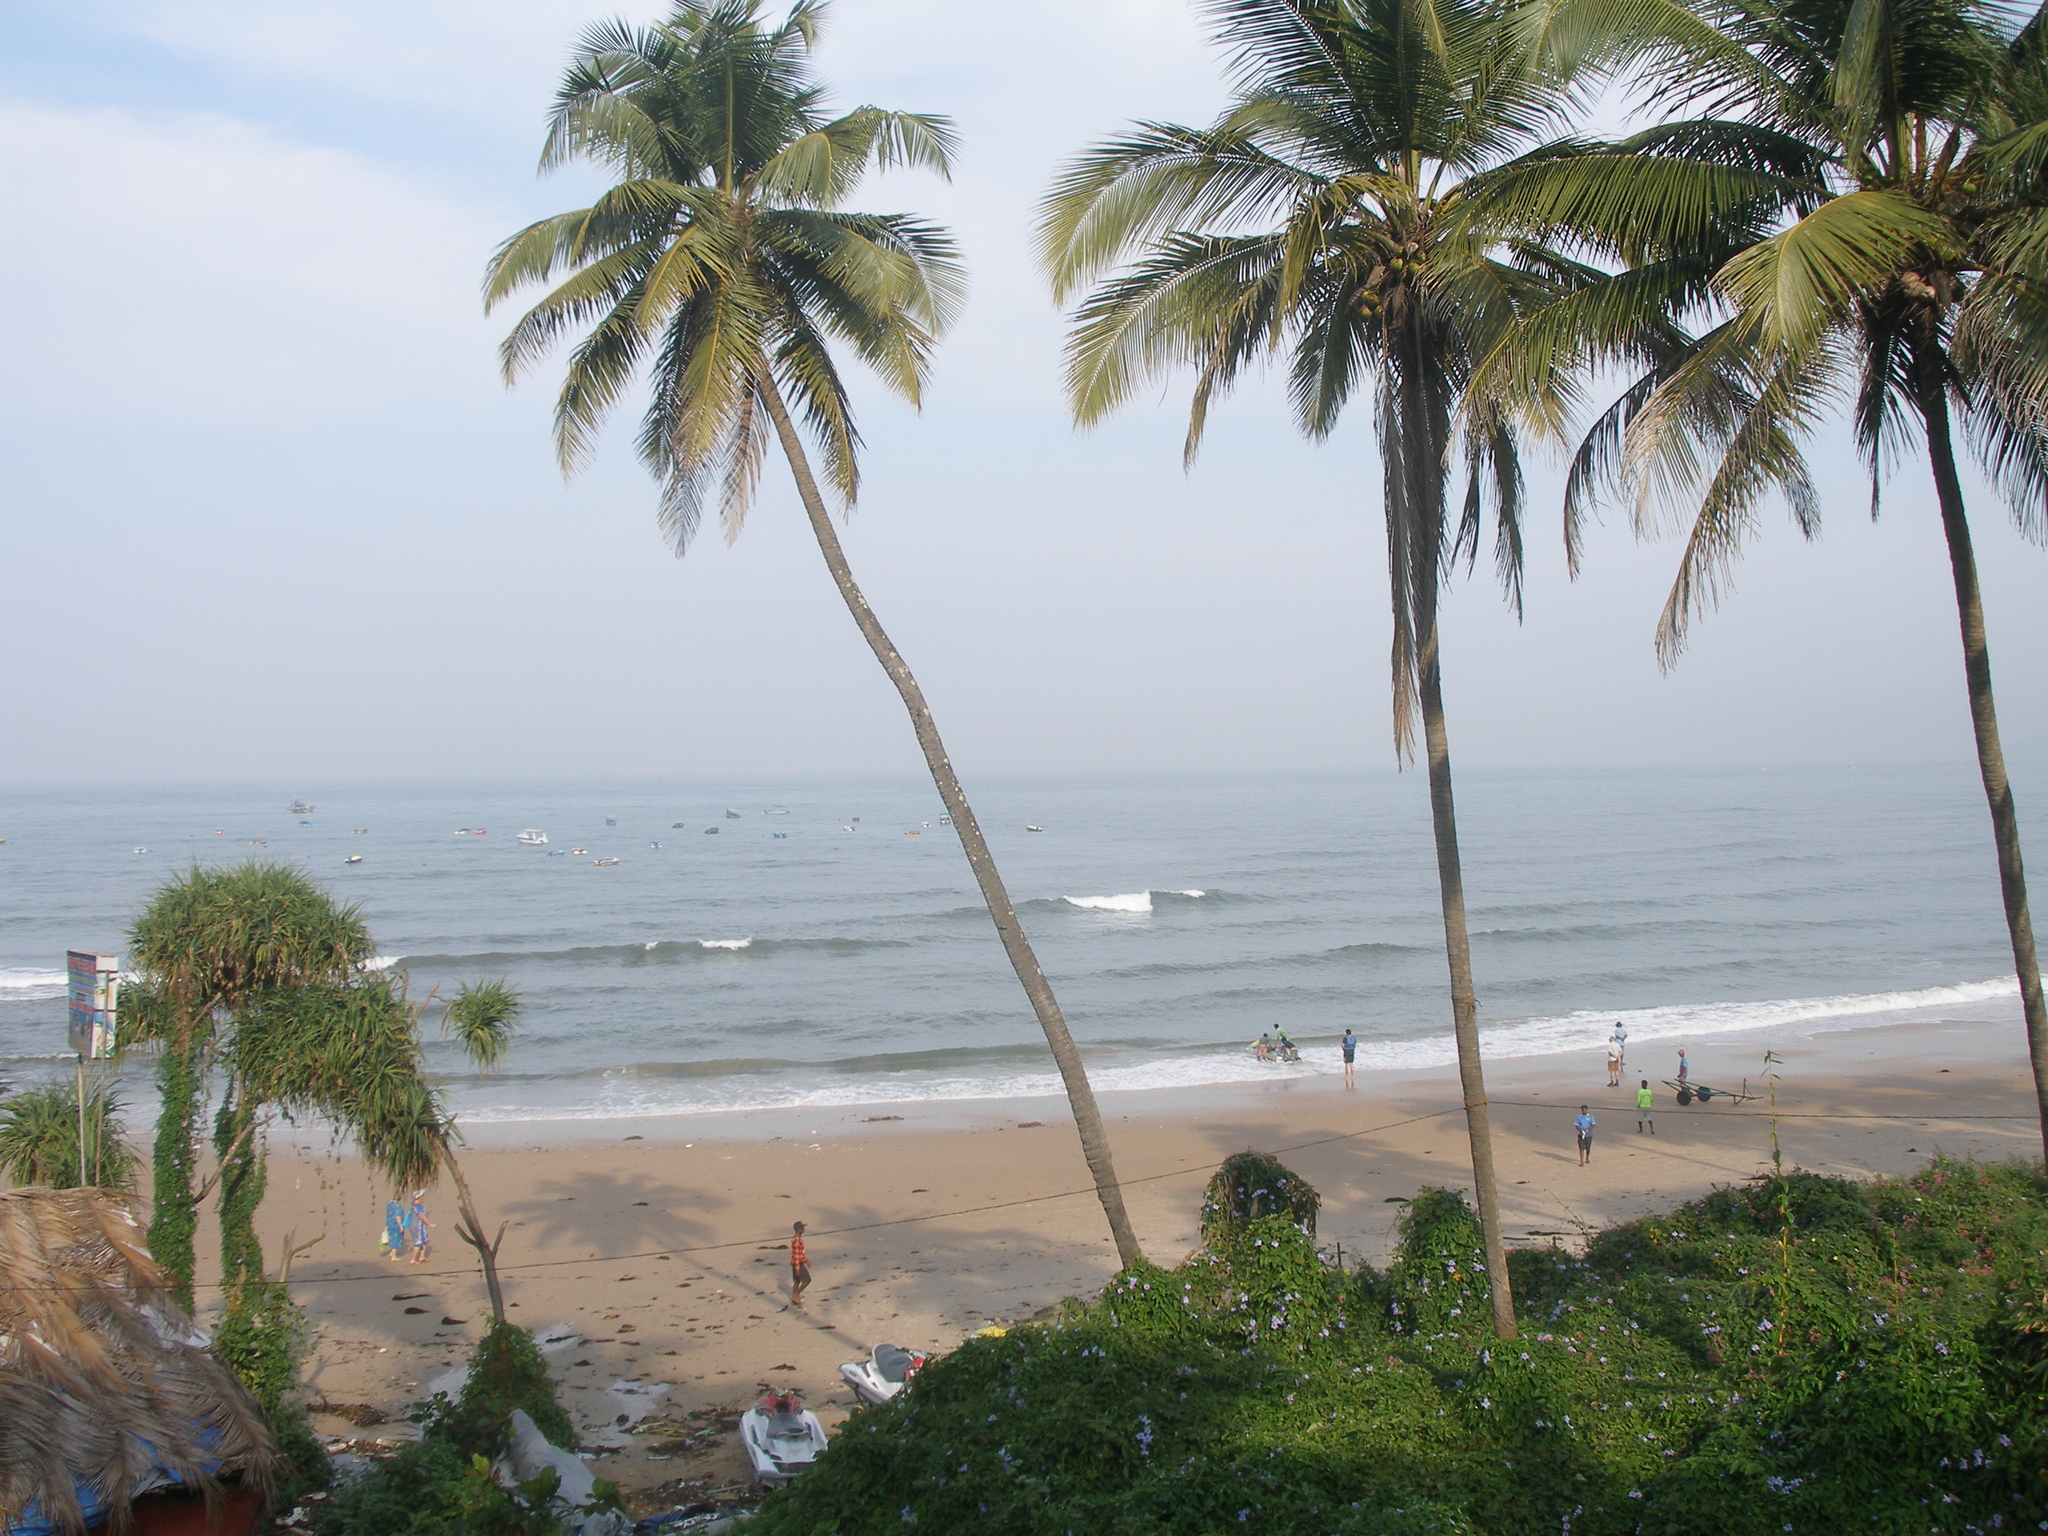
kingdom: Plantae
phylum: Tracheophyta
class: Liliopsida
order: Arecales
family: Arecaceae
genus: Cocos
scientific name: Cocos nucifera
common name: Coconut palm
